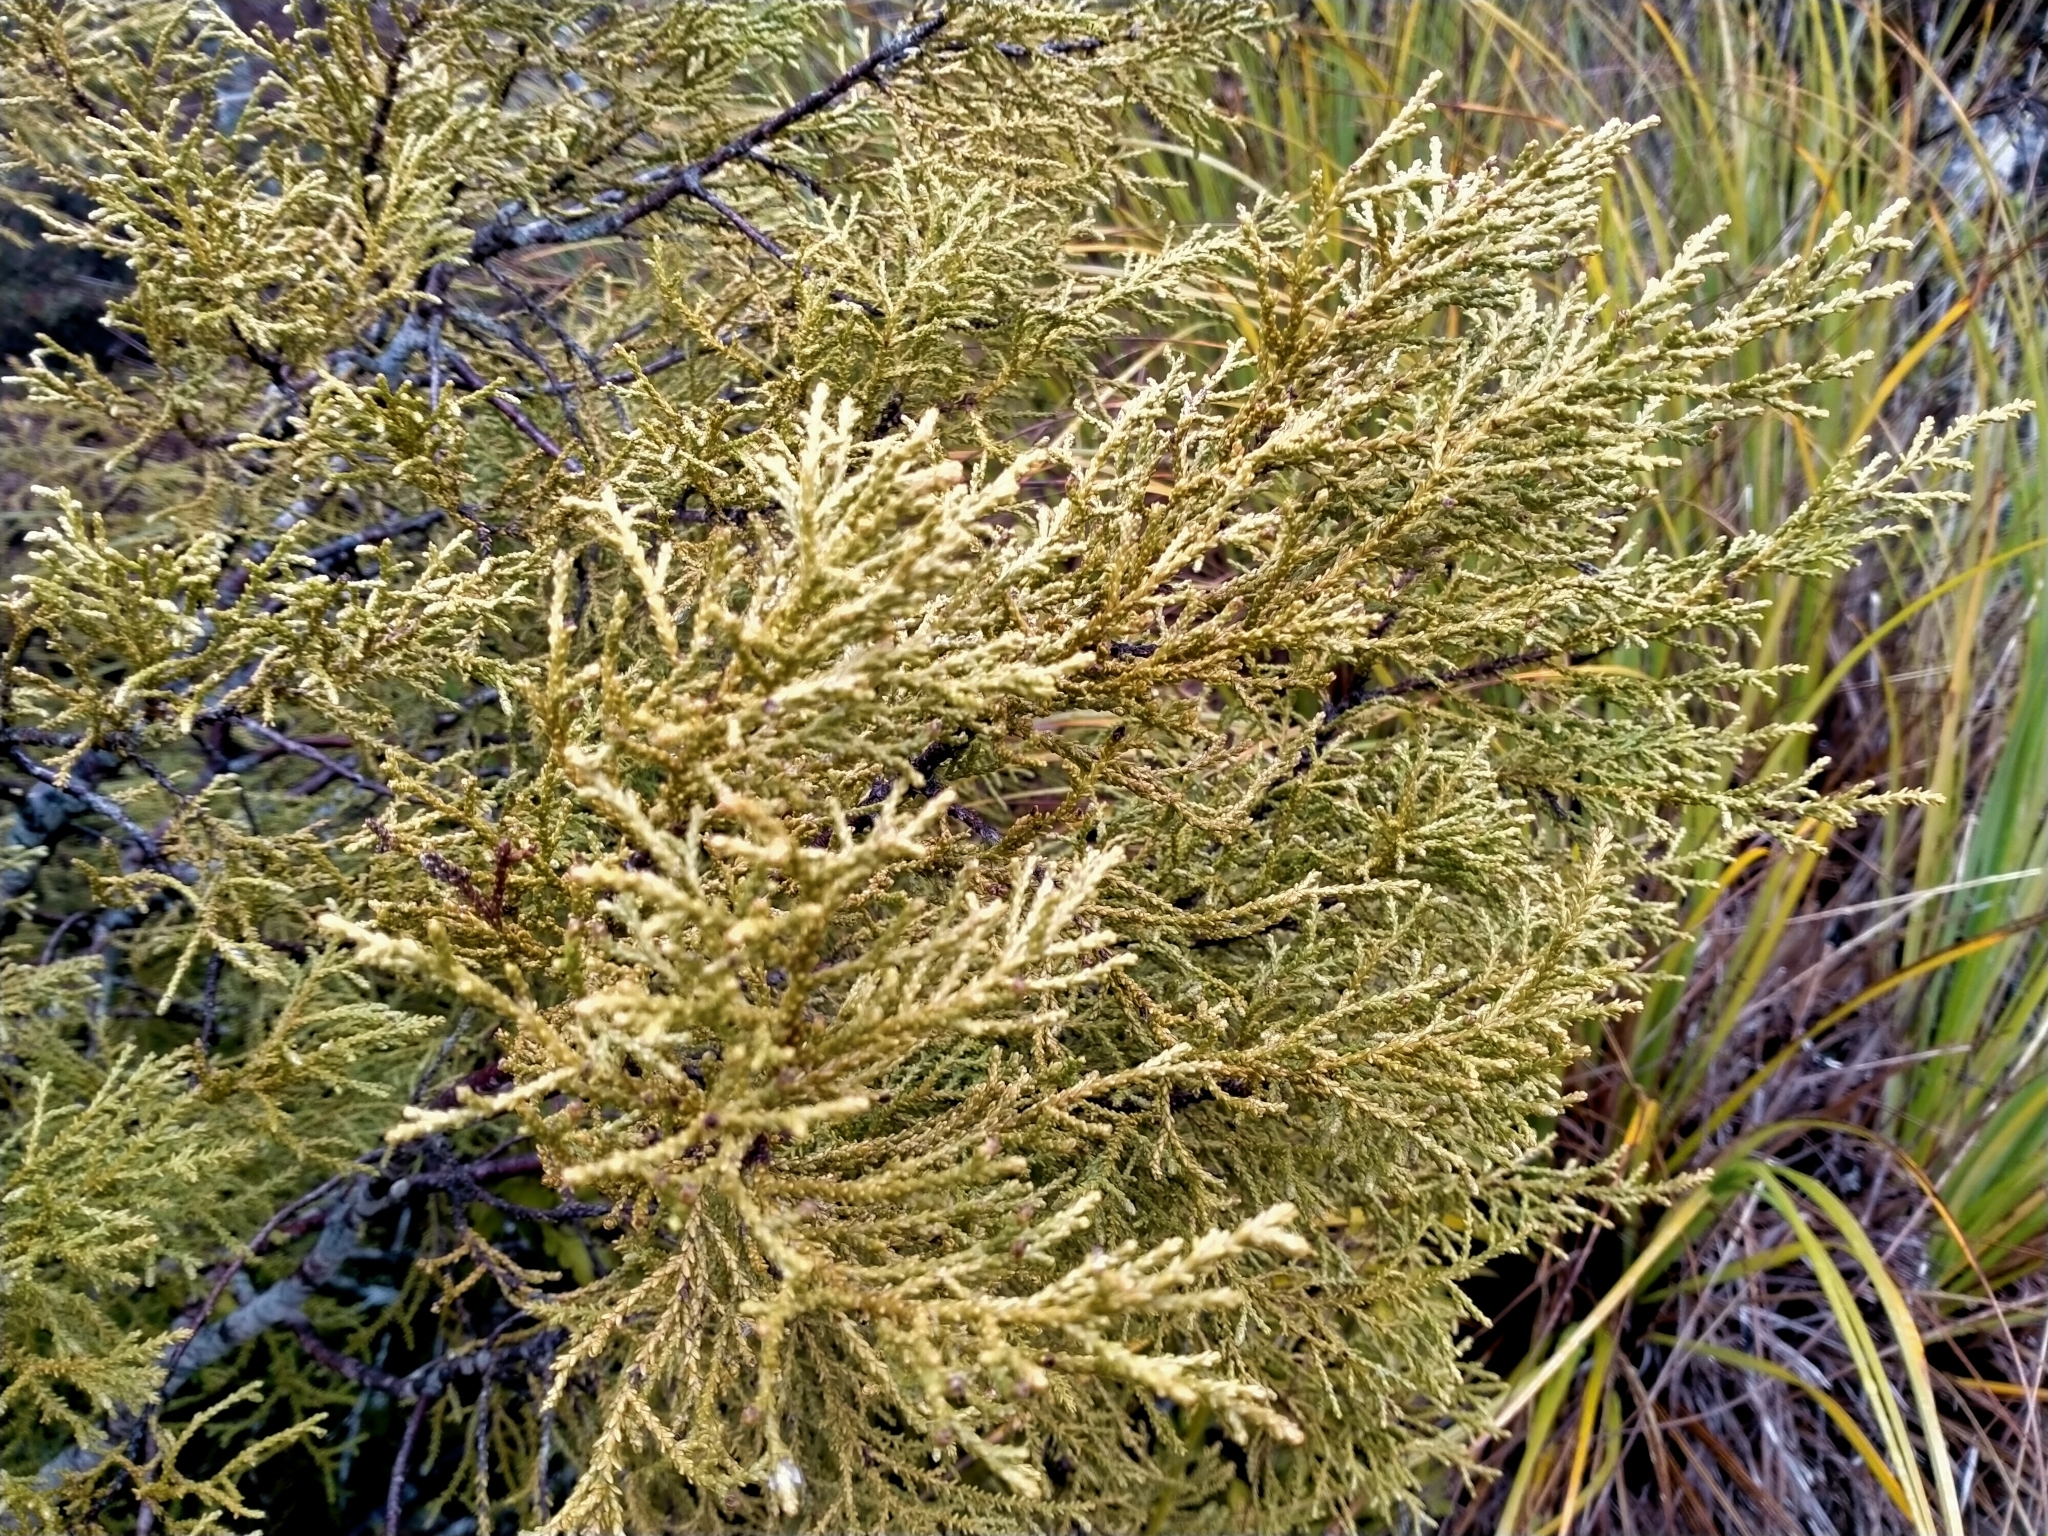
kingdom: Plantae
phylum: Tracheophyta
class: Pinopsida
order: Pinales
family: Podocarpaceae
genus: Lepidothamnus
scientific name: Lepidothamnus intermedius
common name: Yellow silver pine
